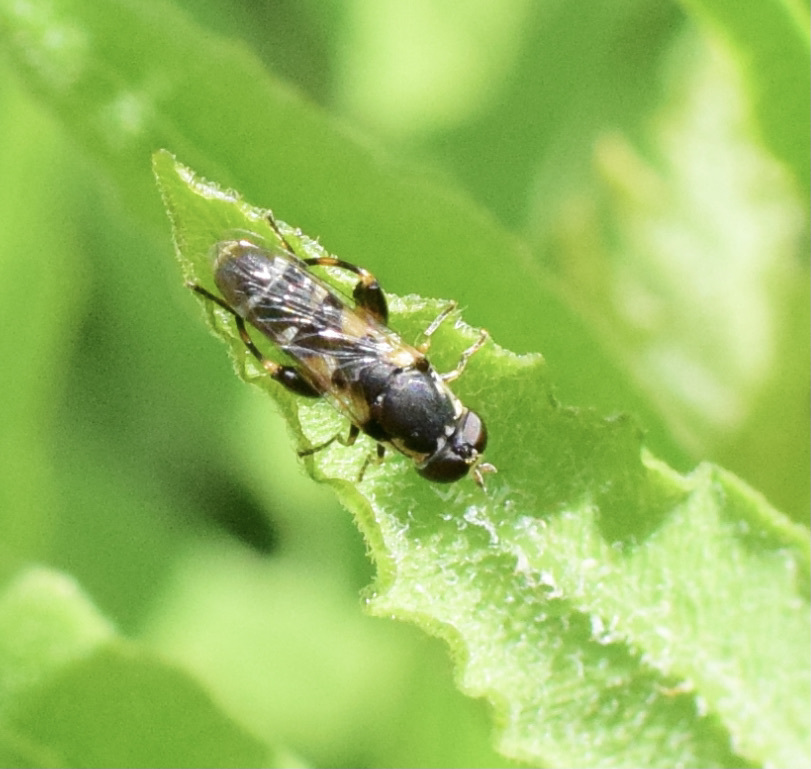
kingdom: Animalia
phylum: Arthropoda
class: Insecta
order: Diptera
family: Syrphidae
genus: Syritta
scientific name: Syritta pipiens
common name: Hover fly
